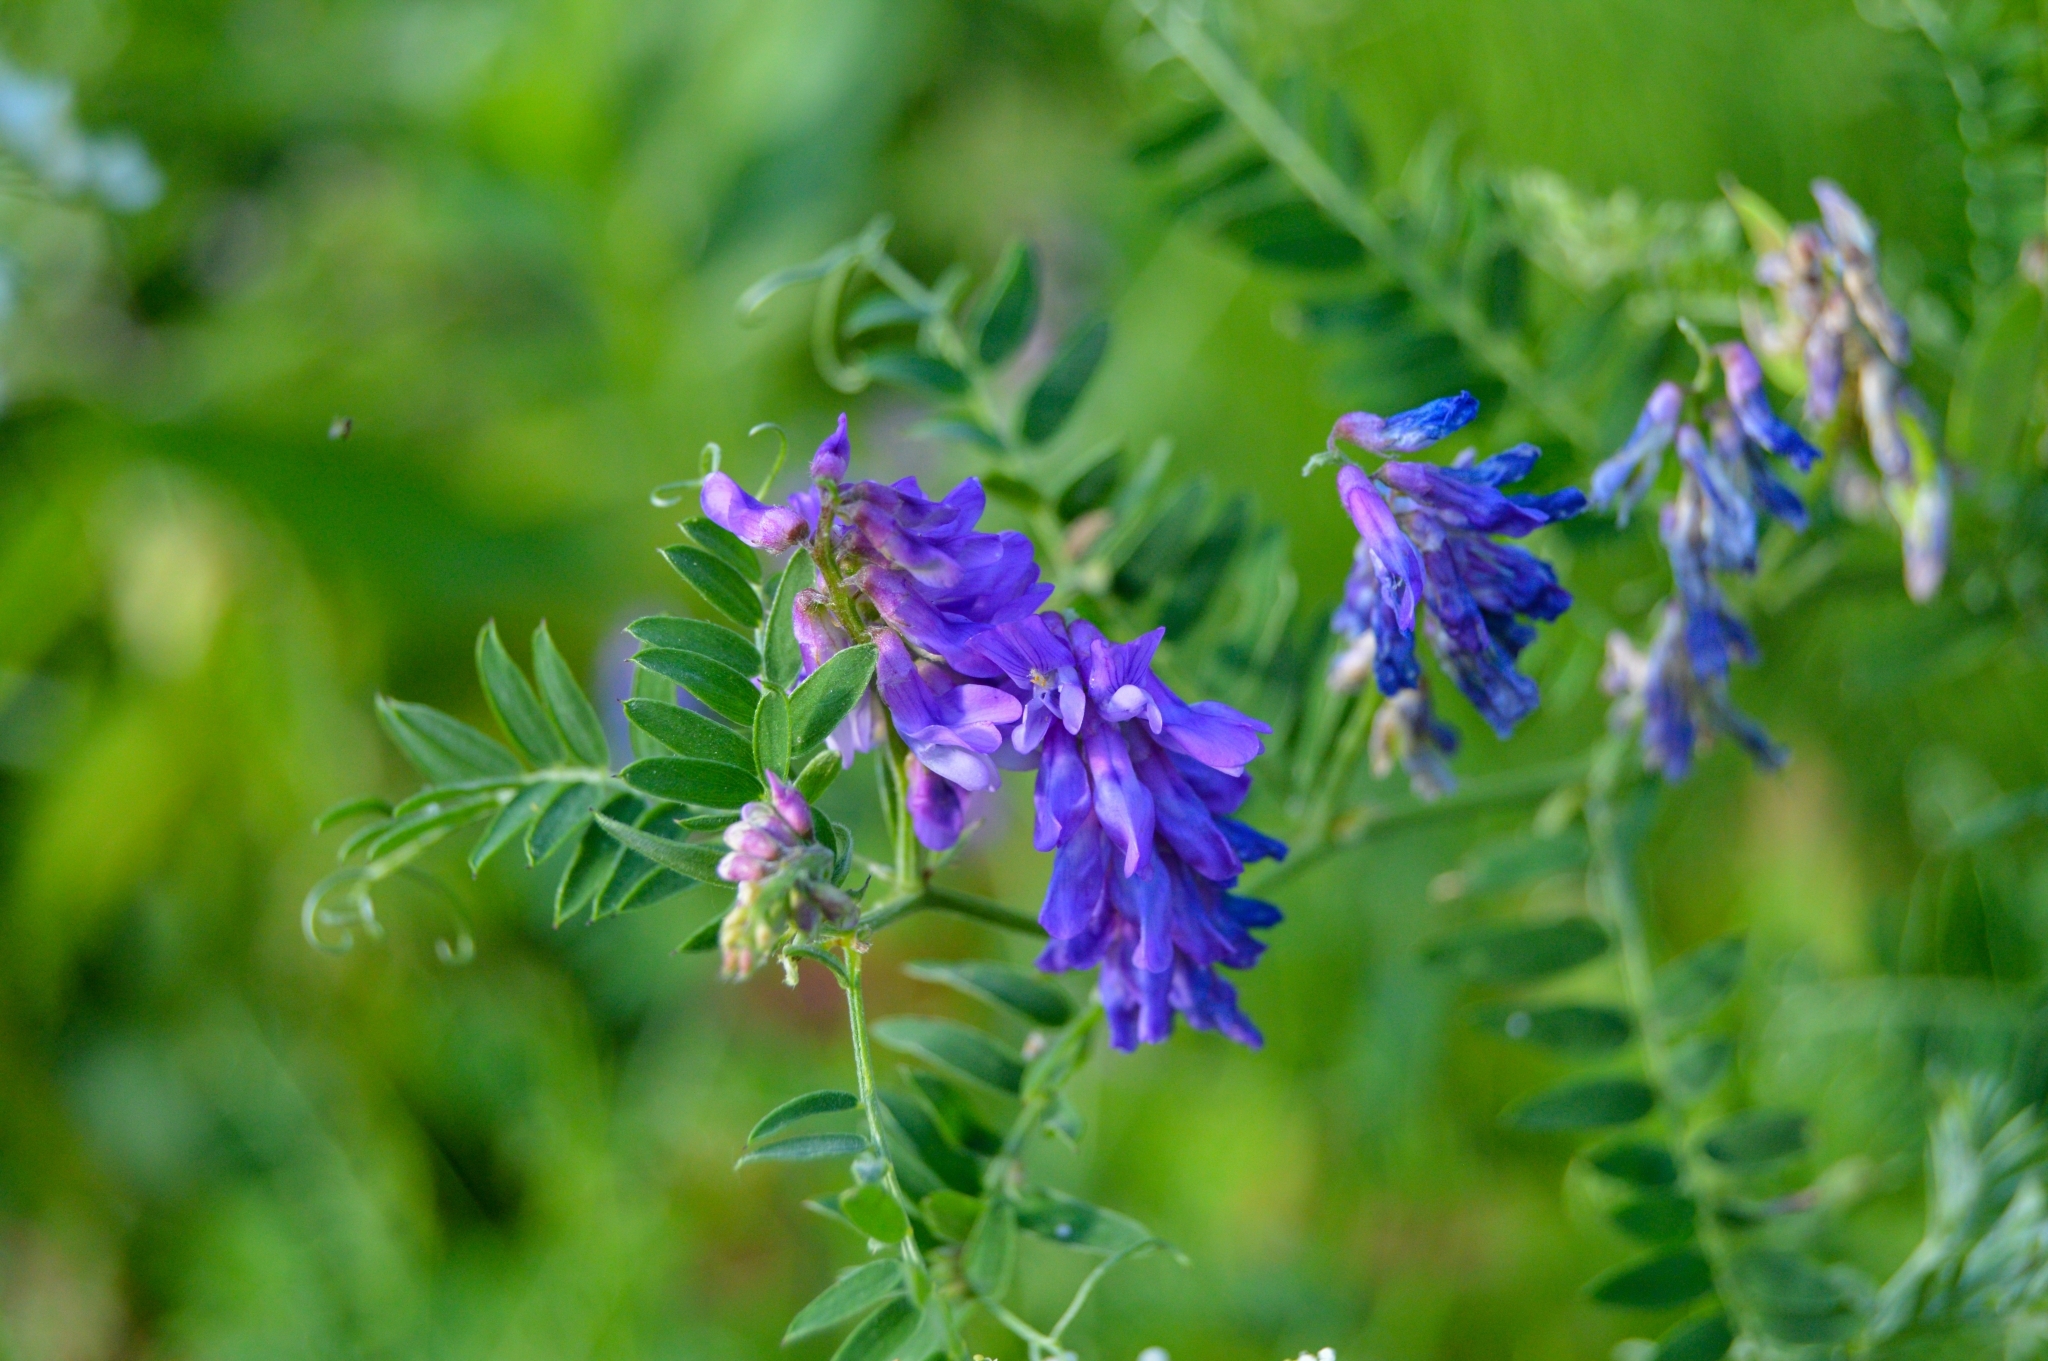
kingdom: Plantae
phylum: Tracheophyta
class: Magnoliopsida
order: Fabales
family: Fabaceae
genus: Vicia
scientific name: Vicia cracca
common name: Bird vetch
